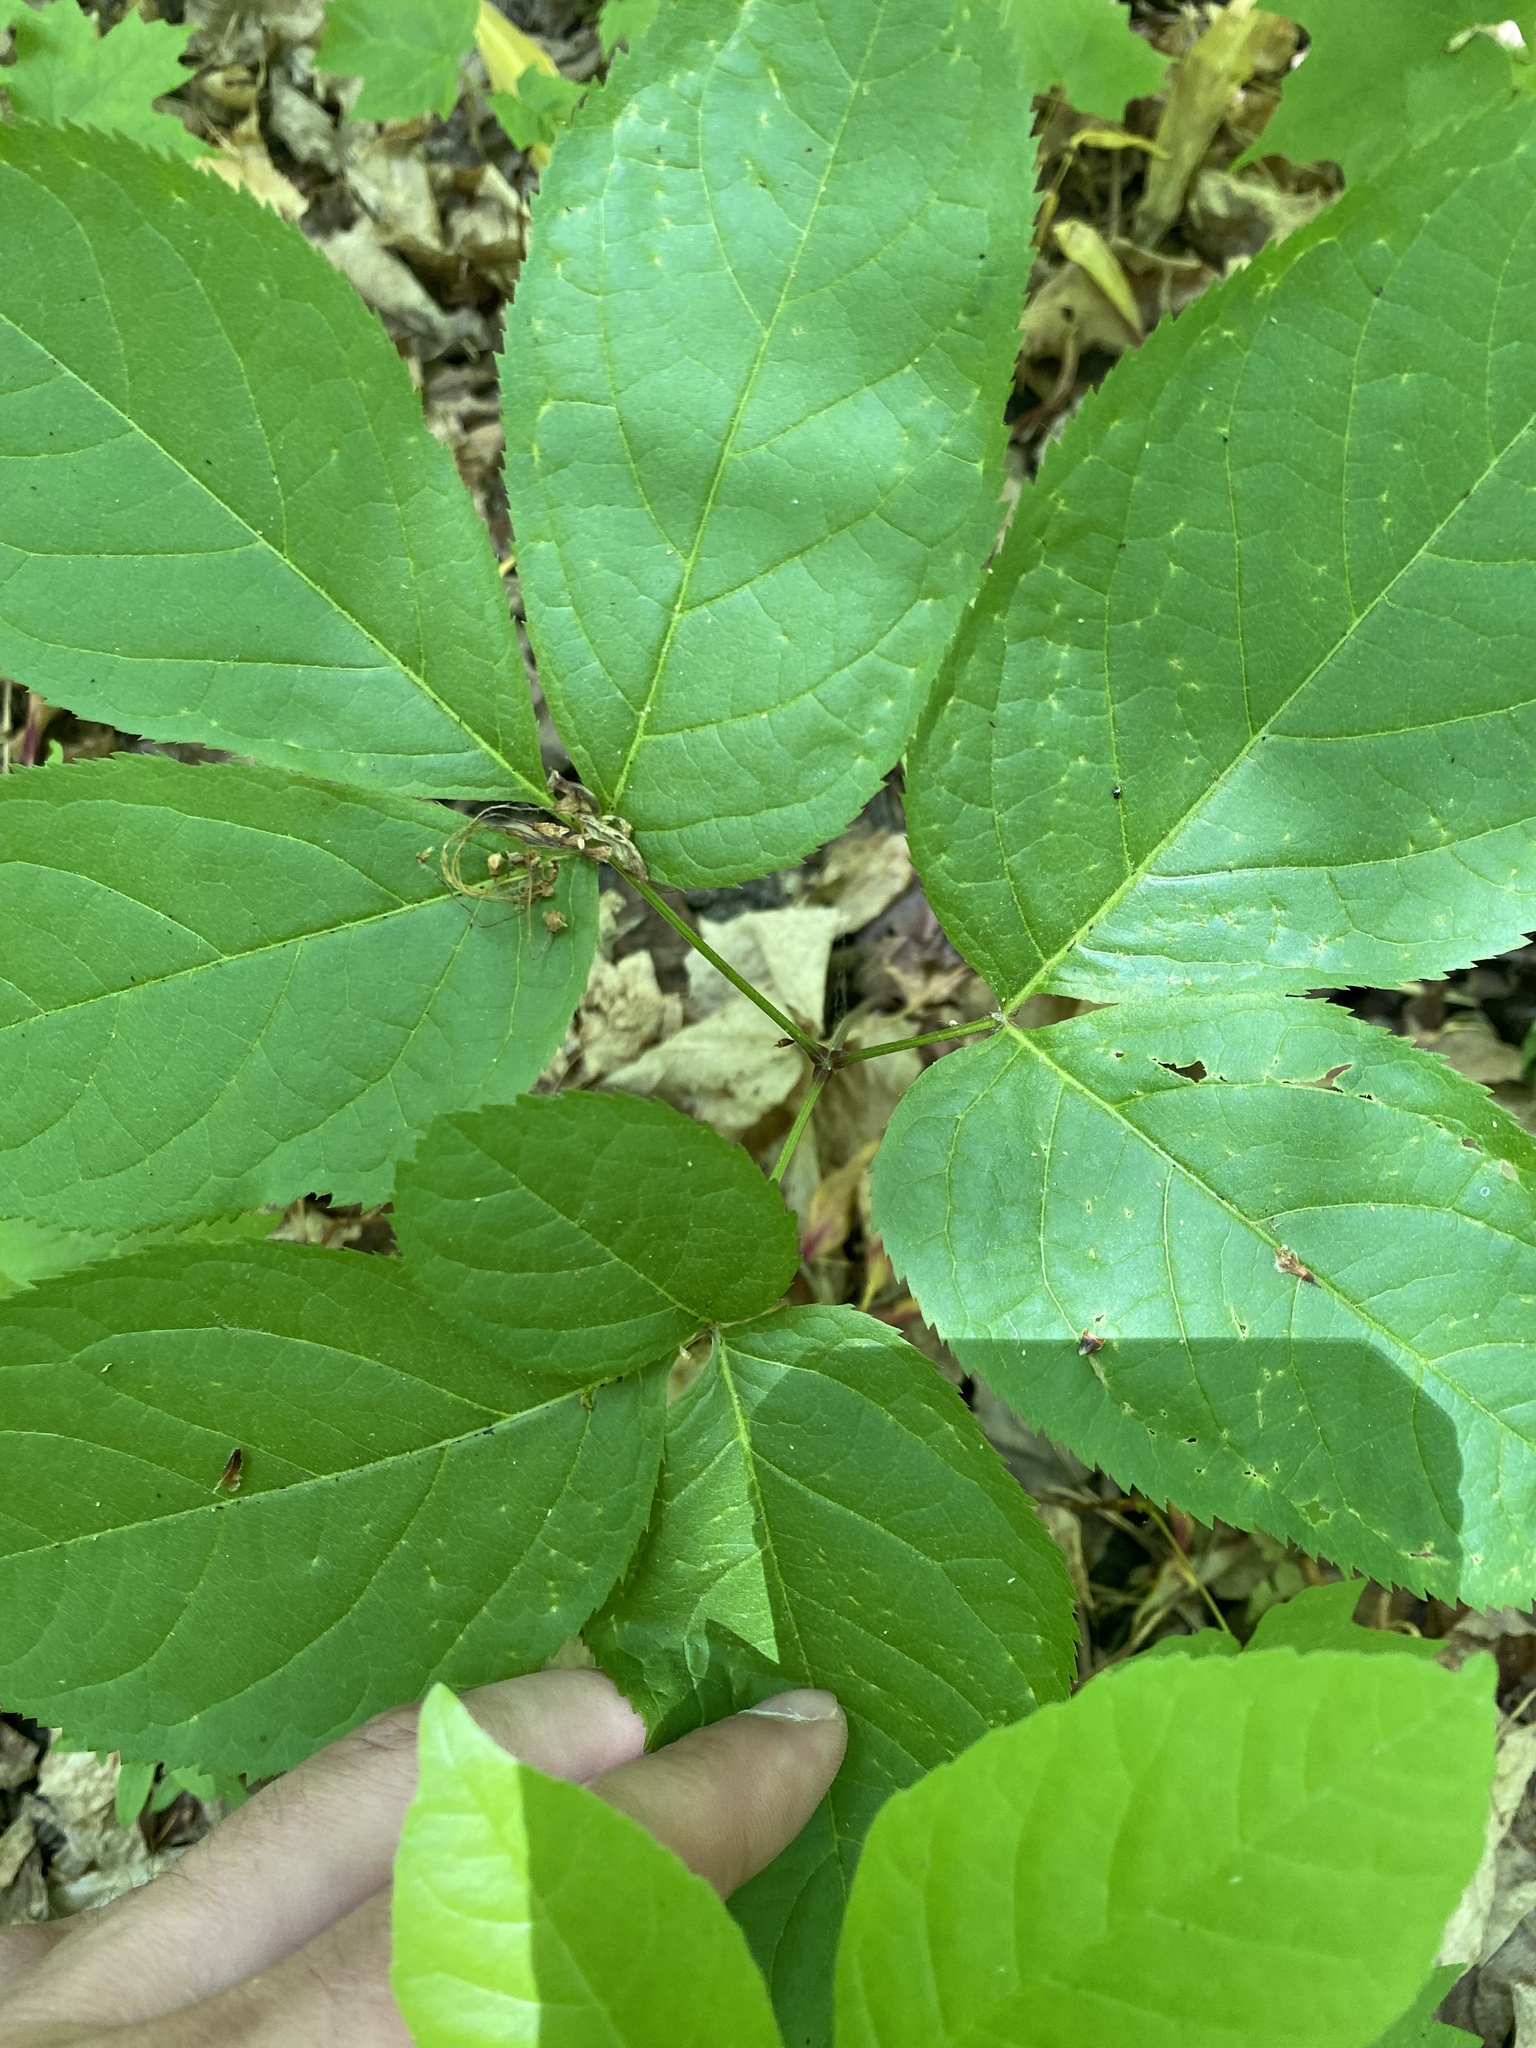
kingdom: Plantae
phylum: Tracheophyta
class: Magnoliopsida
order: Apiales
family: Araliaceae
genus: Aralia
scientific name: Aralia nudicaulis
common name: Wild sarsaparilla
